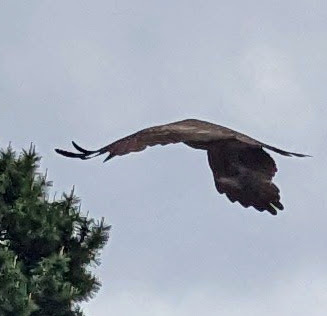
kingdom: Animalia
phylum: Chordata
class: Aves
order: Accipitriformes
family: Accipitridae
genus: Milvus
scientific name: Milvus migrans
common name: Black kite
